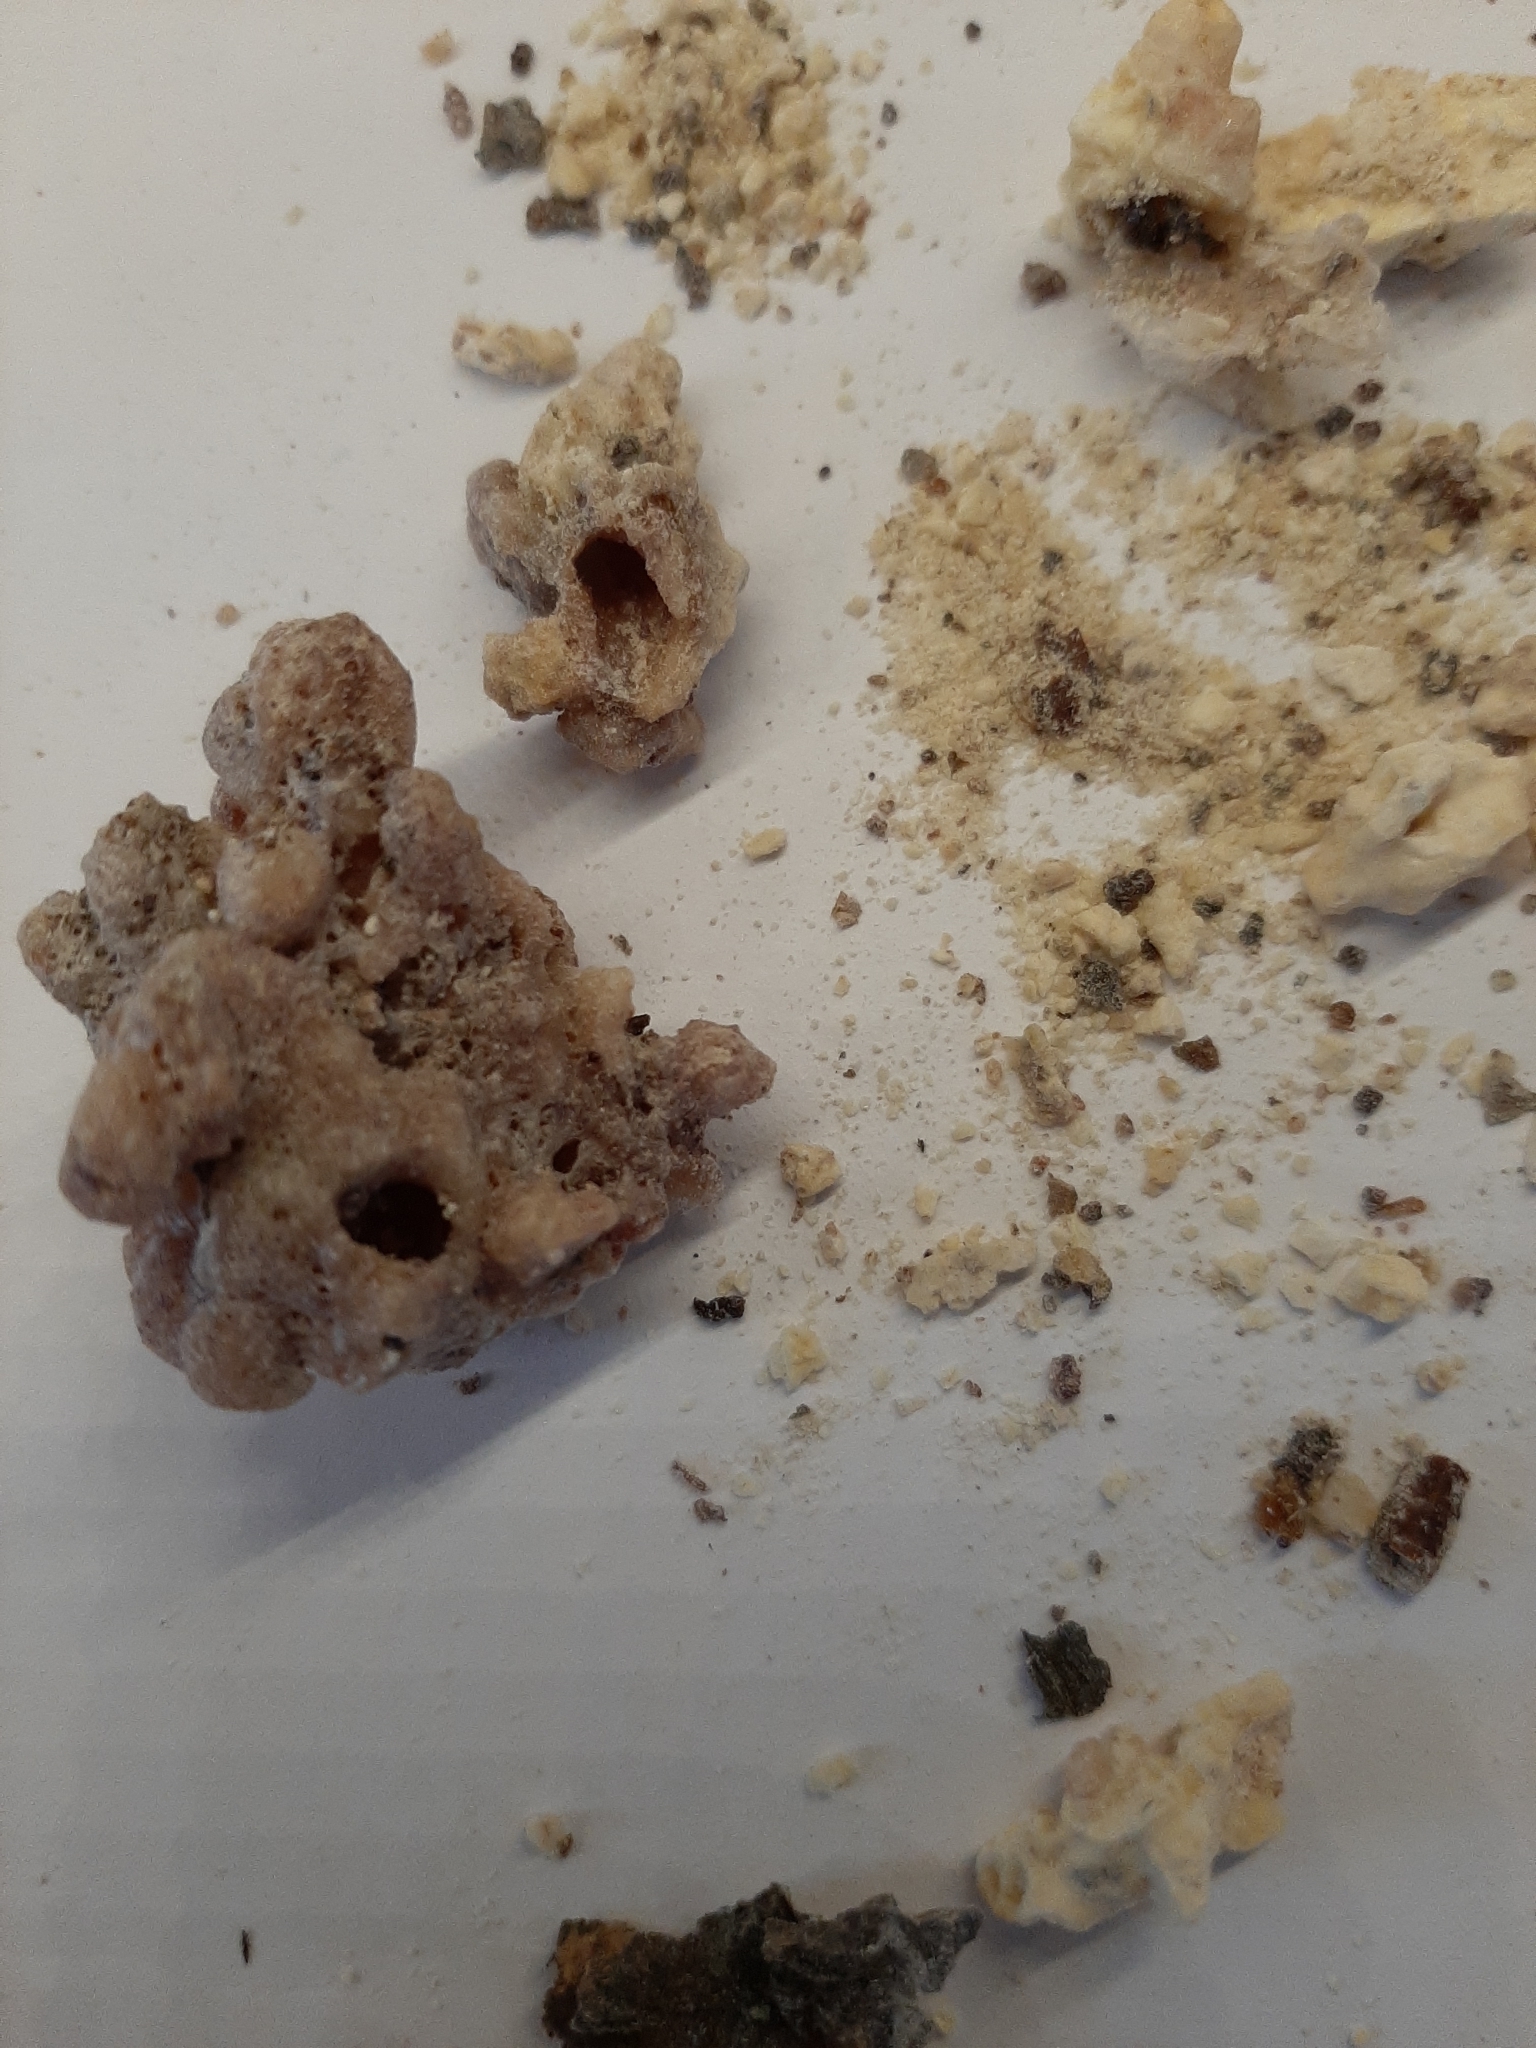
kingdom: Animalia
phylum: Arthropoda
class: Insecta
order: Lepidoptera
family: Sesiidae
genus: Synanthedon
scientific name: Synanthedon pini
